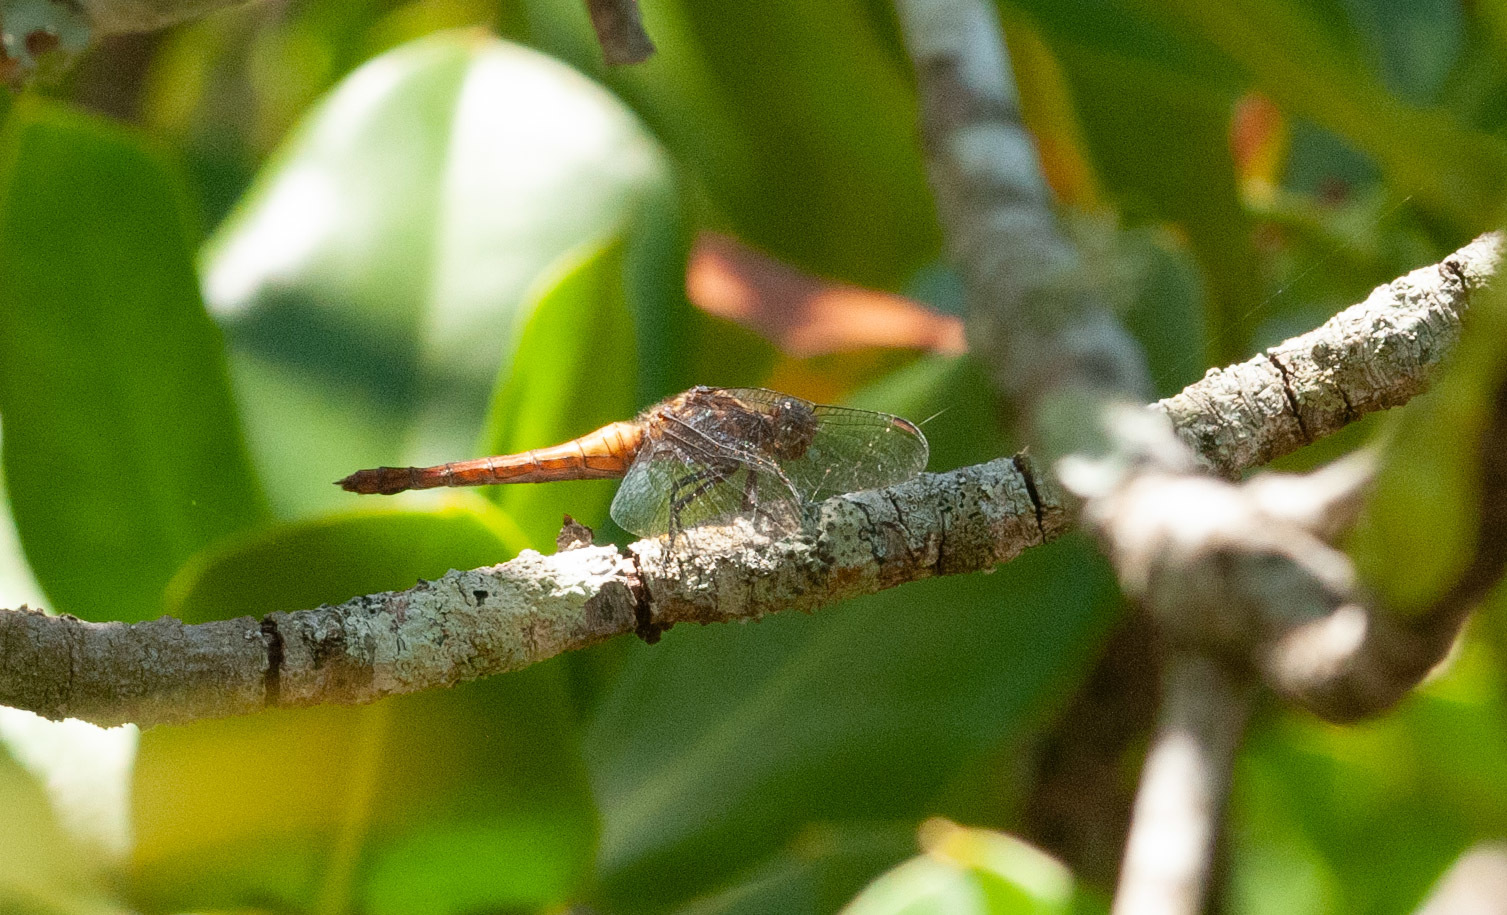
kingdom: Animalia
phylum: Arthropoda
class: Insecta
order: Odonata
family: Libellulidae
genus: Orthetrum
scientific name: Orthetrum villosovittatum
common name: Firery skimmer
